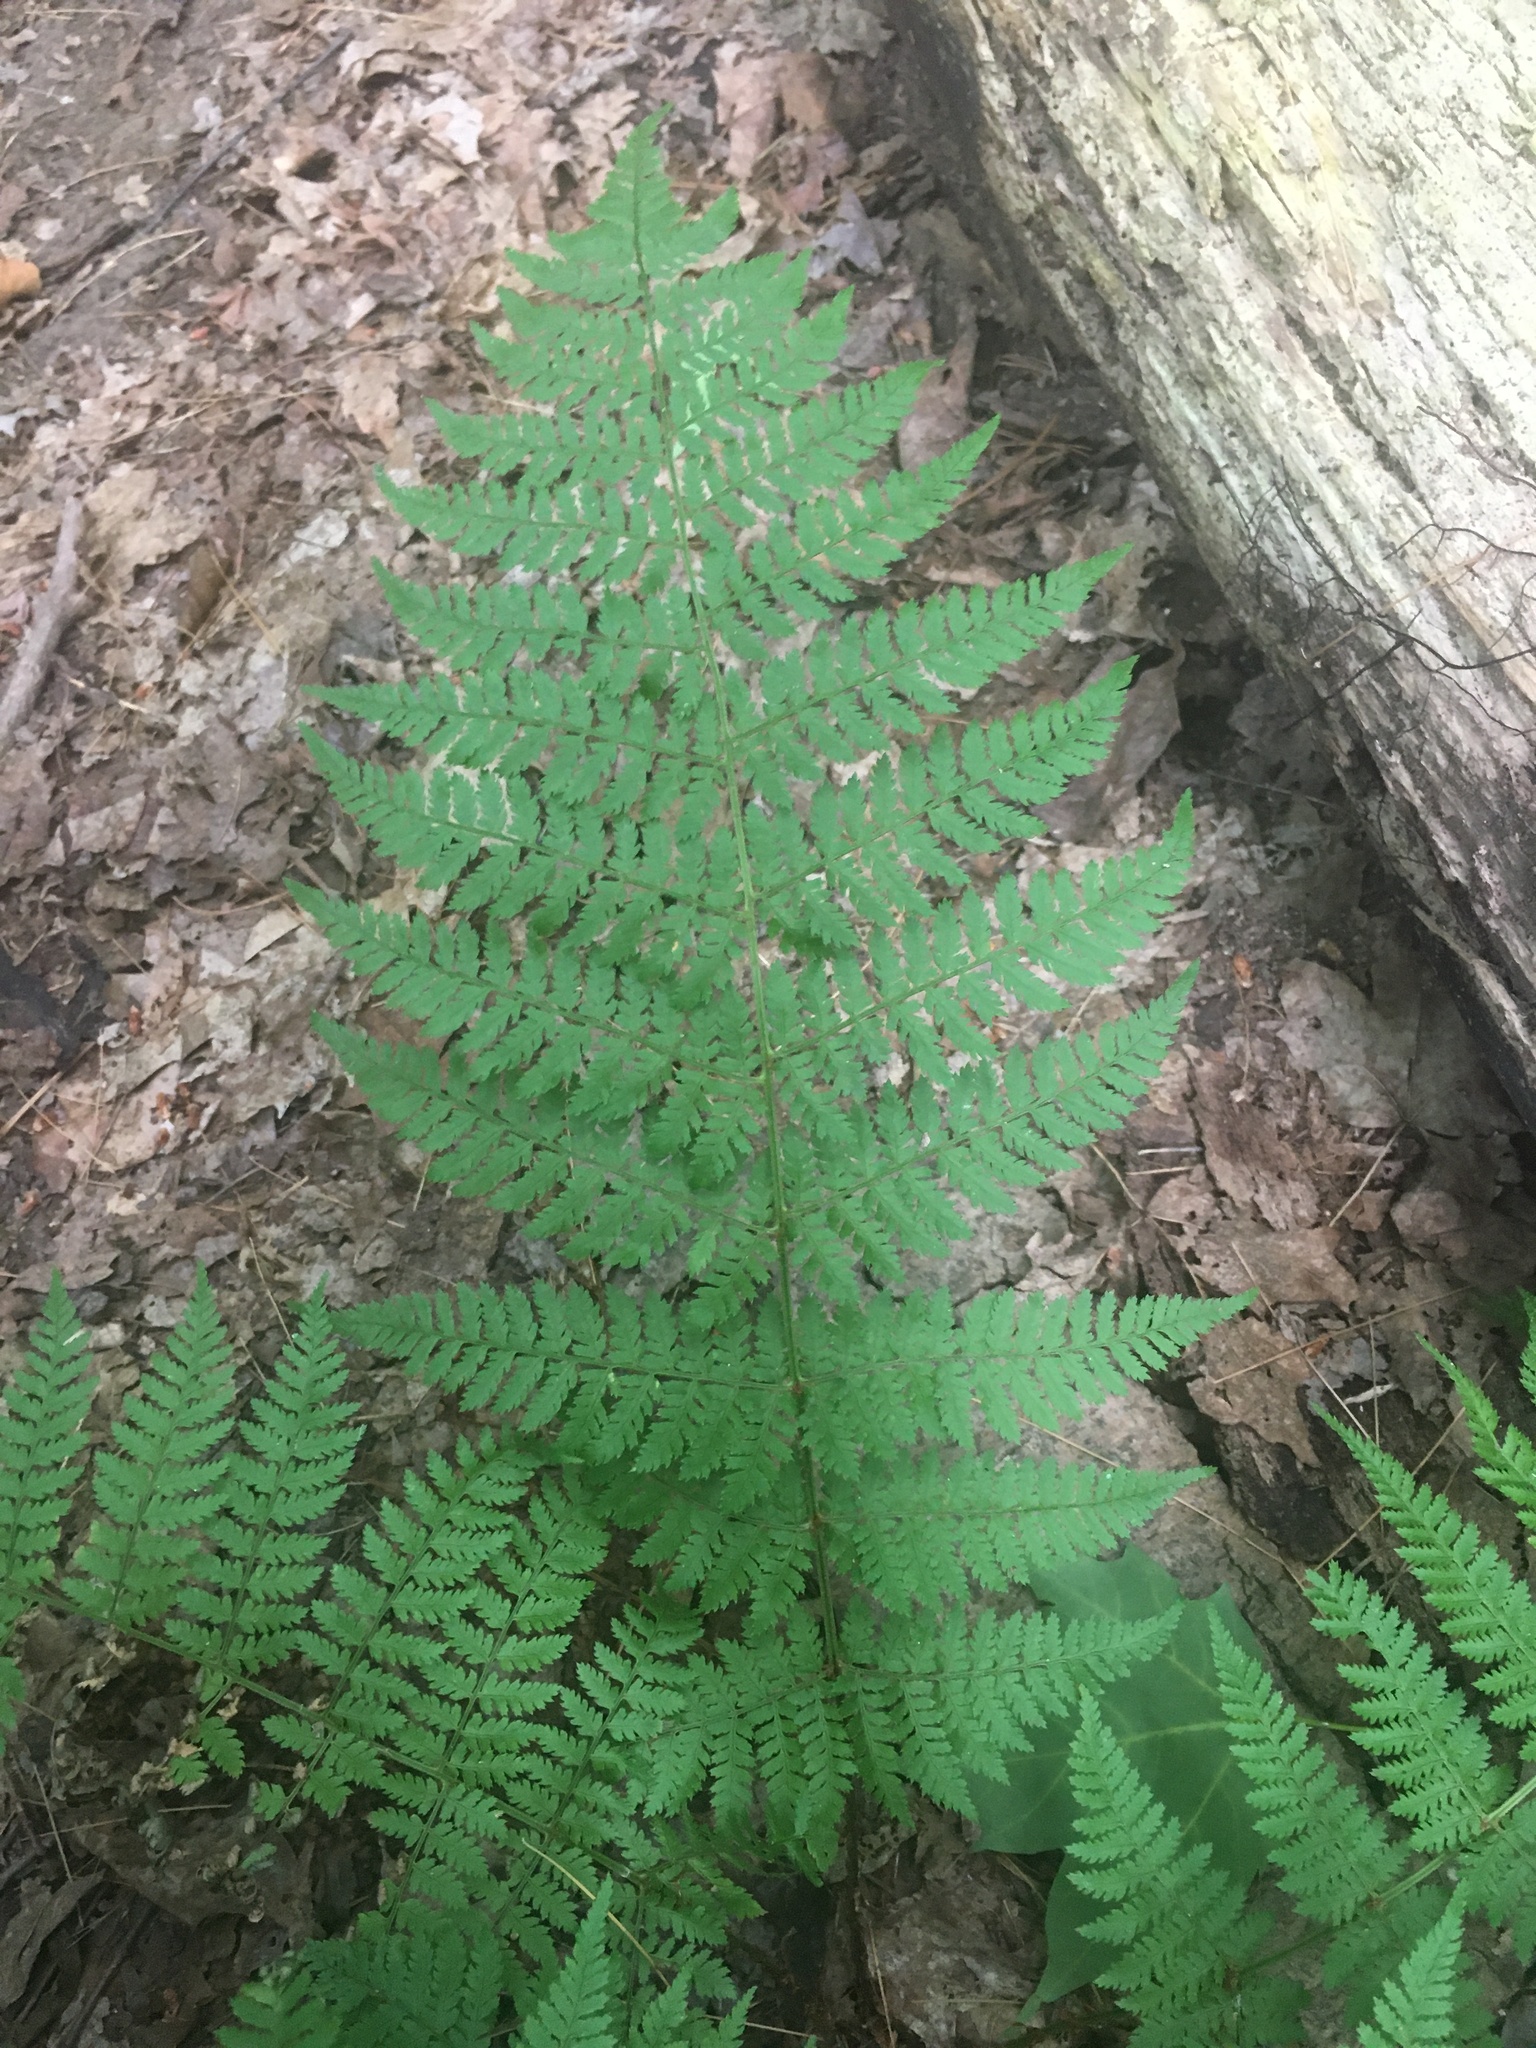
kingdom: Plantae
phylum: Tracheophyta
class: Polypodiopsida
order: Polypodiales
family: Dryopteridaceae
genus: Dryopteris
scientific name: Dryopteris intermedia
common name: Evergreen wood fern
